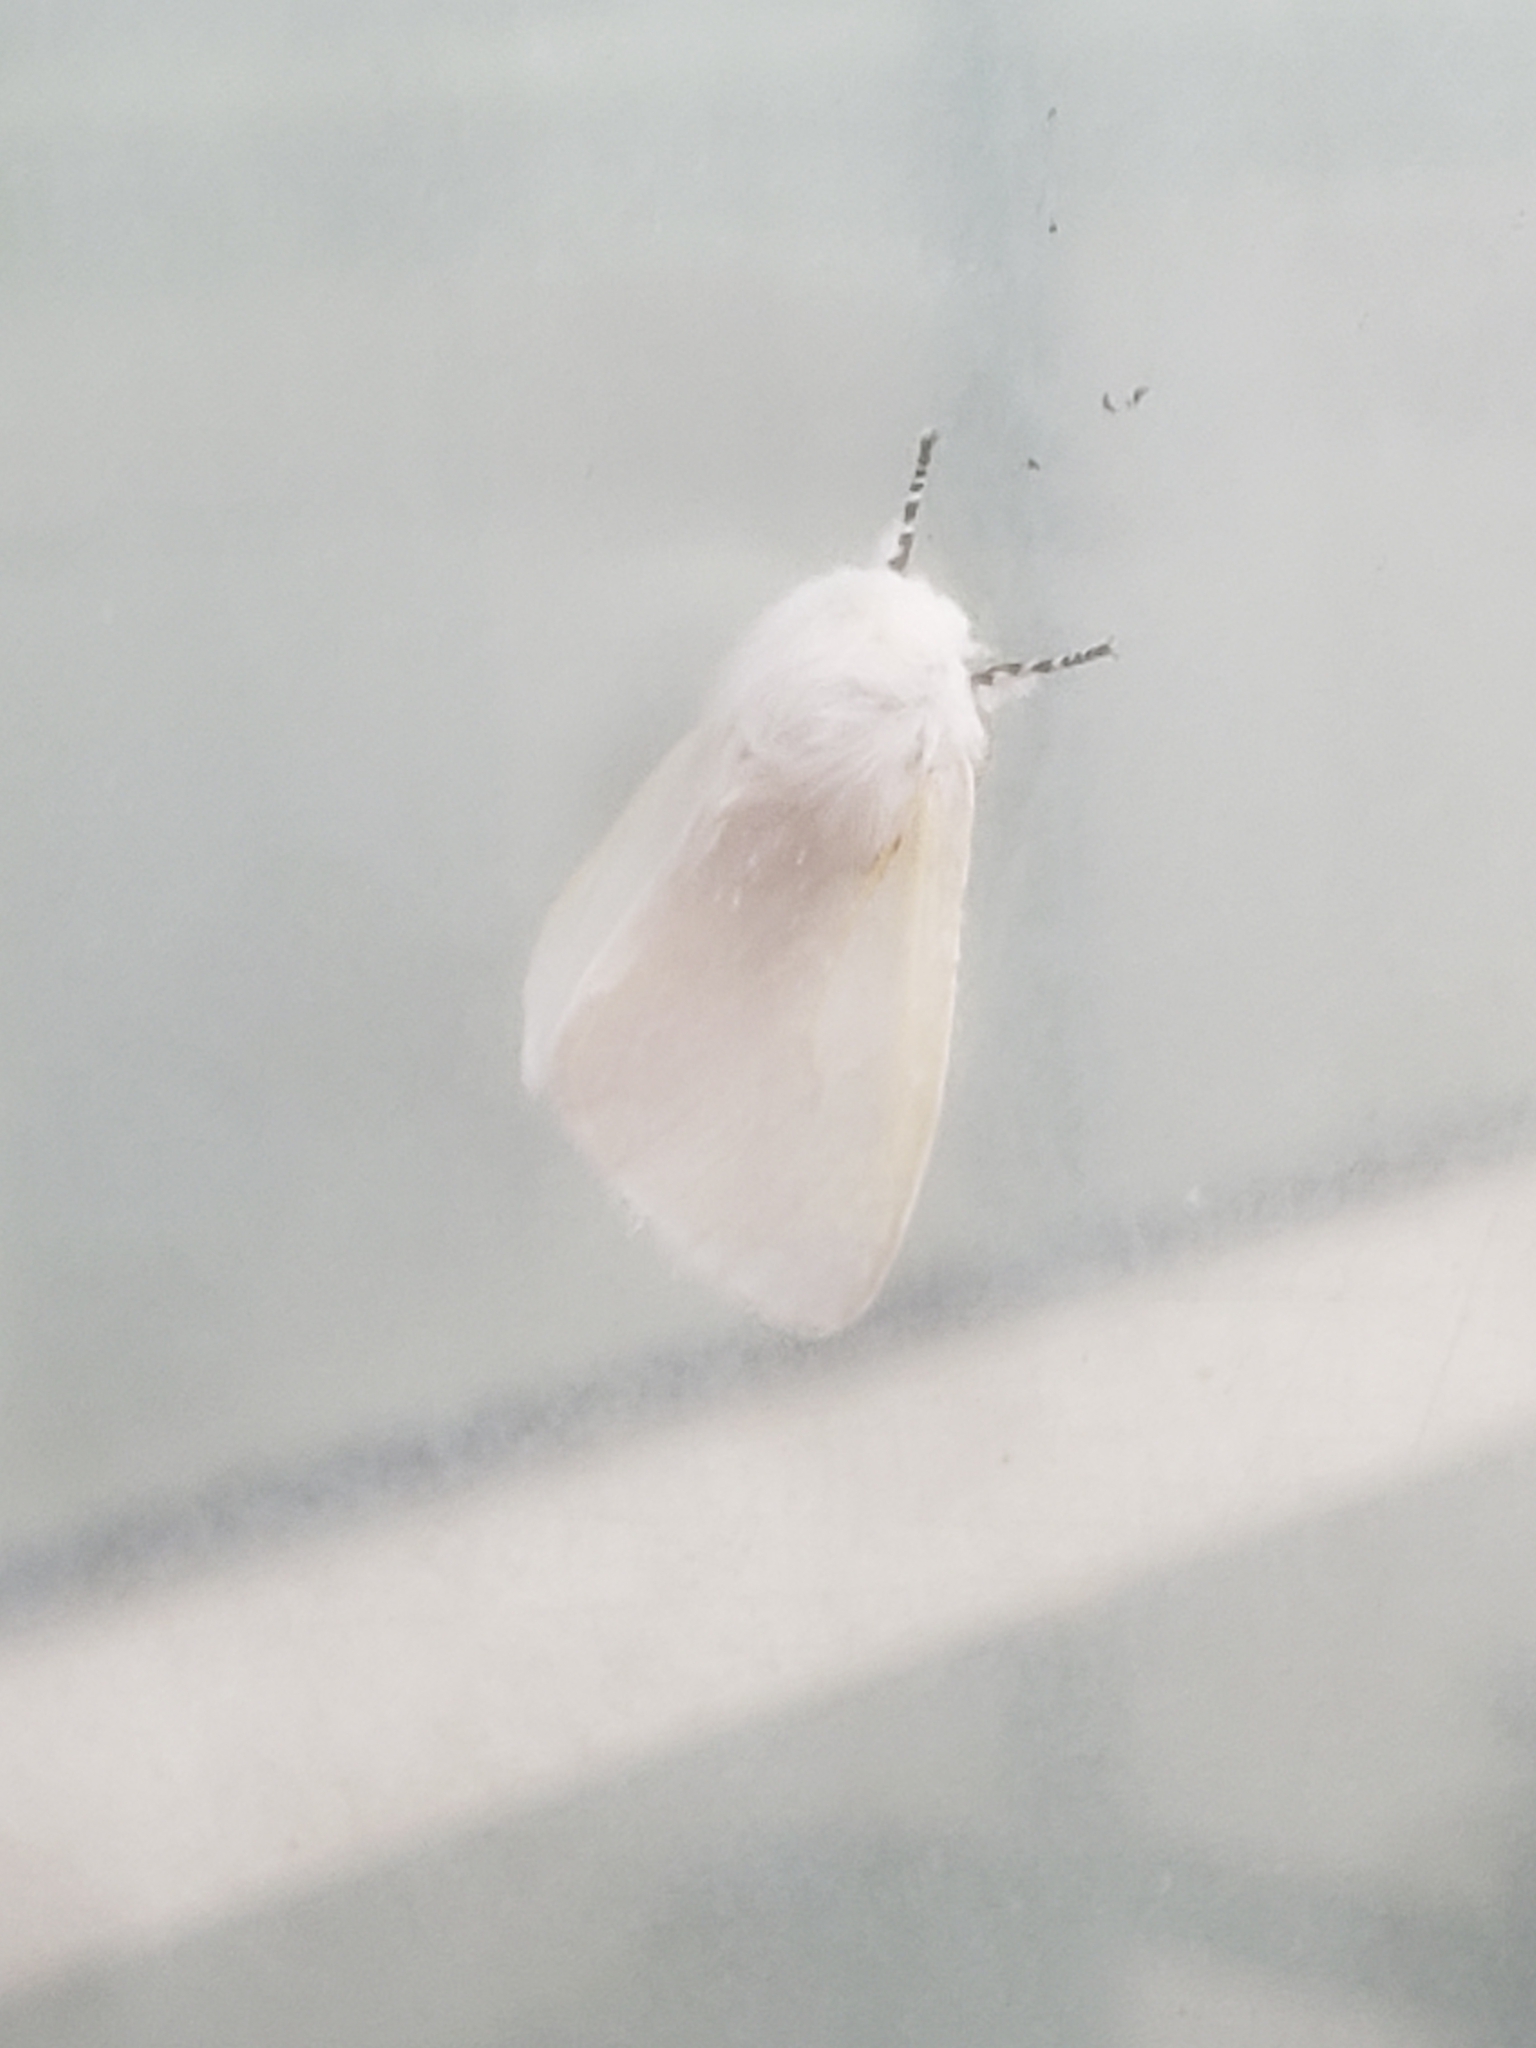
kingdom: Animalia
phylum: Arthropoda
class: Insecta
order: Lepidoptera
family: Erebidae
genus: Leucoma
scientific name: Leucoma salicis
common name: White satin moth
